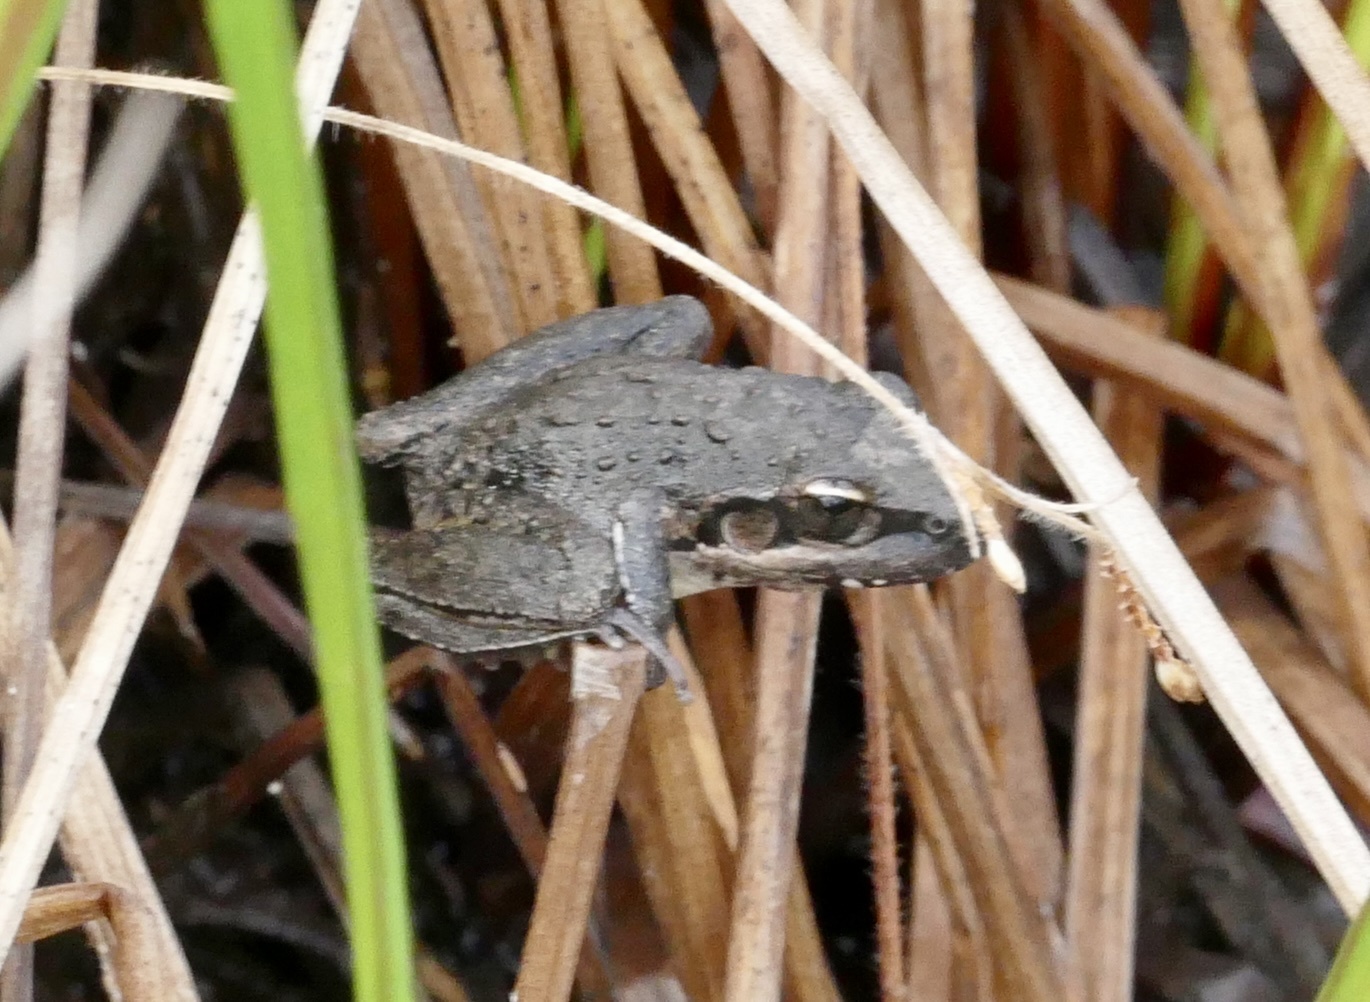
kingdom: Animalia
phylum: Chordata
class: Amphibia
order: Anura
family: Pelodryadidae
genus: Litoria
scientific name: Litoria latopalmata
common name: Broad-palmed rocket frog
